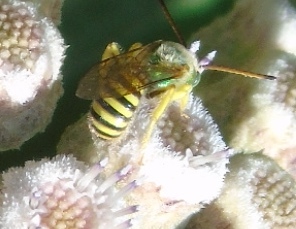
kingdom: Animalia
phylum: Arthropoda
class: Insecta
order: Hymenoptera
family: Halictidae
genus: Agapostemon
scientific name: Agapostemon
